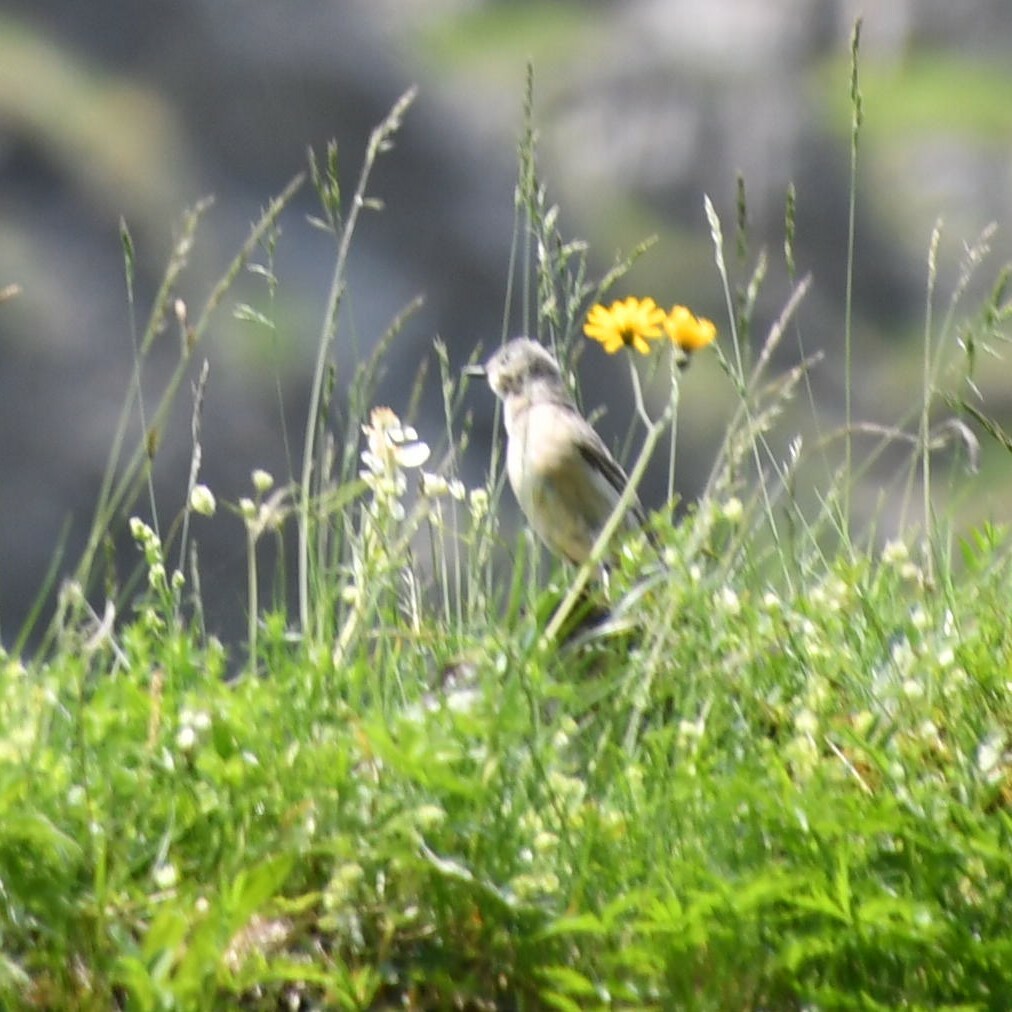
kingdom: Animalia
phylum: Chordata
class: Aves
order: Passeriformes
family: Motacillidae
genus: Anthus
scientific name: Anthus spinoletta
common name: Water pipit
